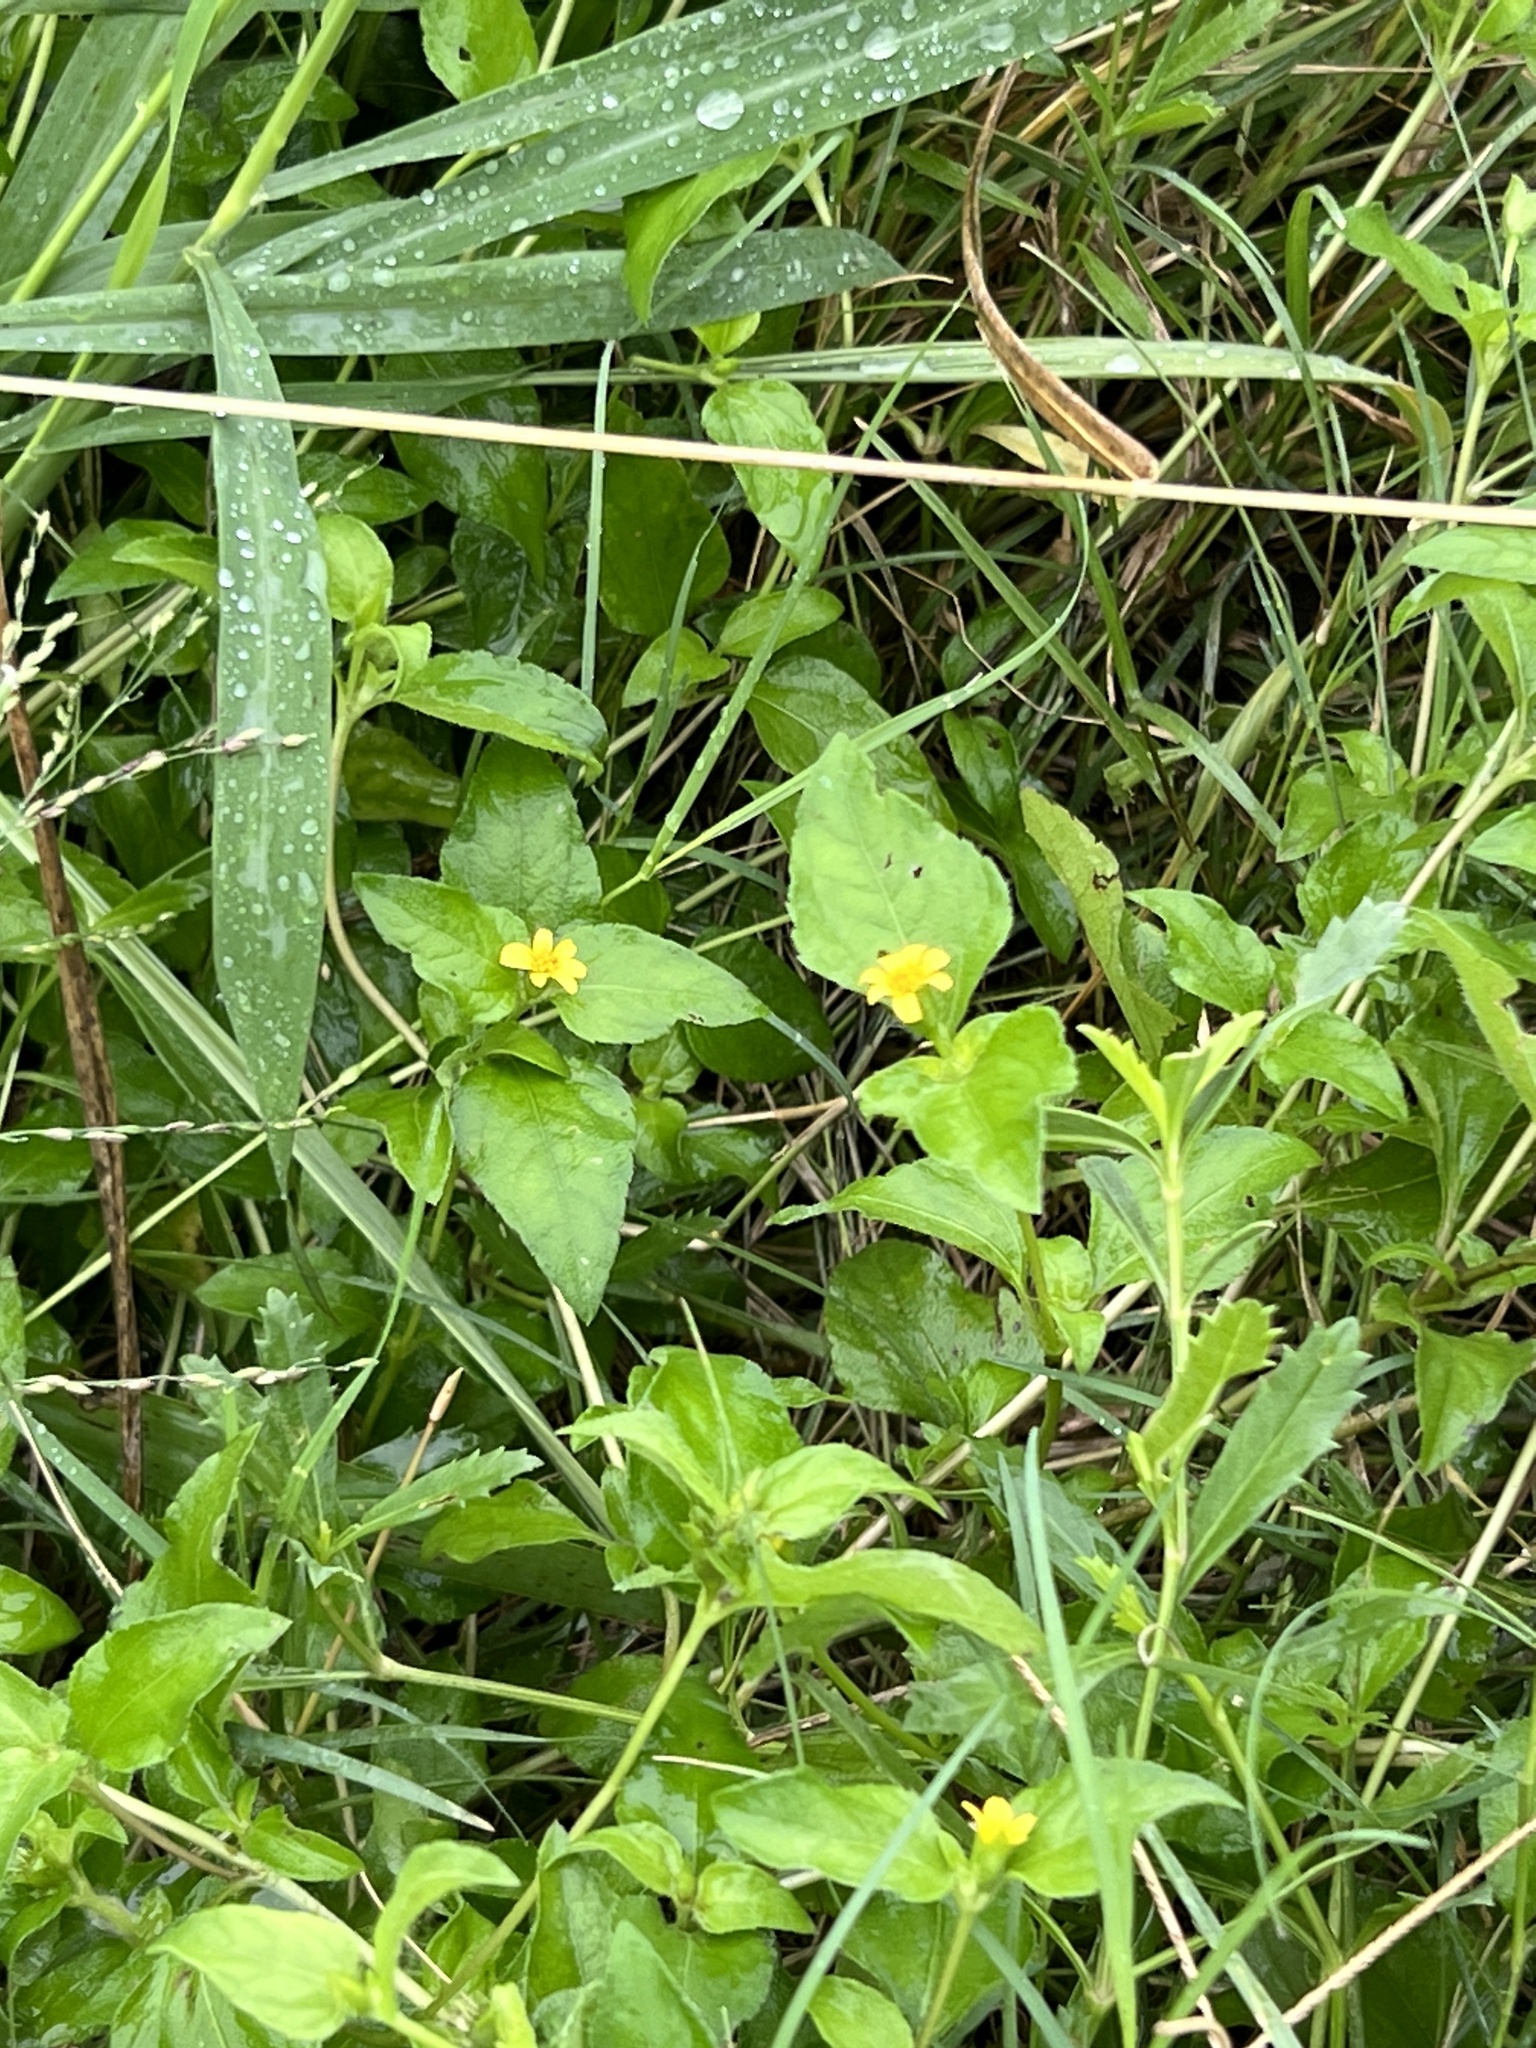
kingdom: Plantae
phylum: Tracheophyta
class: Magnoliopsida
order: Asterales
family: Asteraceae
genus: Calyptocarpus
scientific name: Calyptocarpus vialis
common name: Straggler daisy
